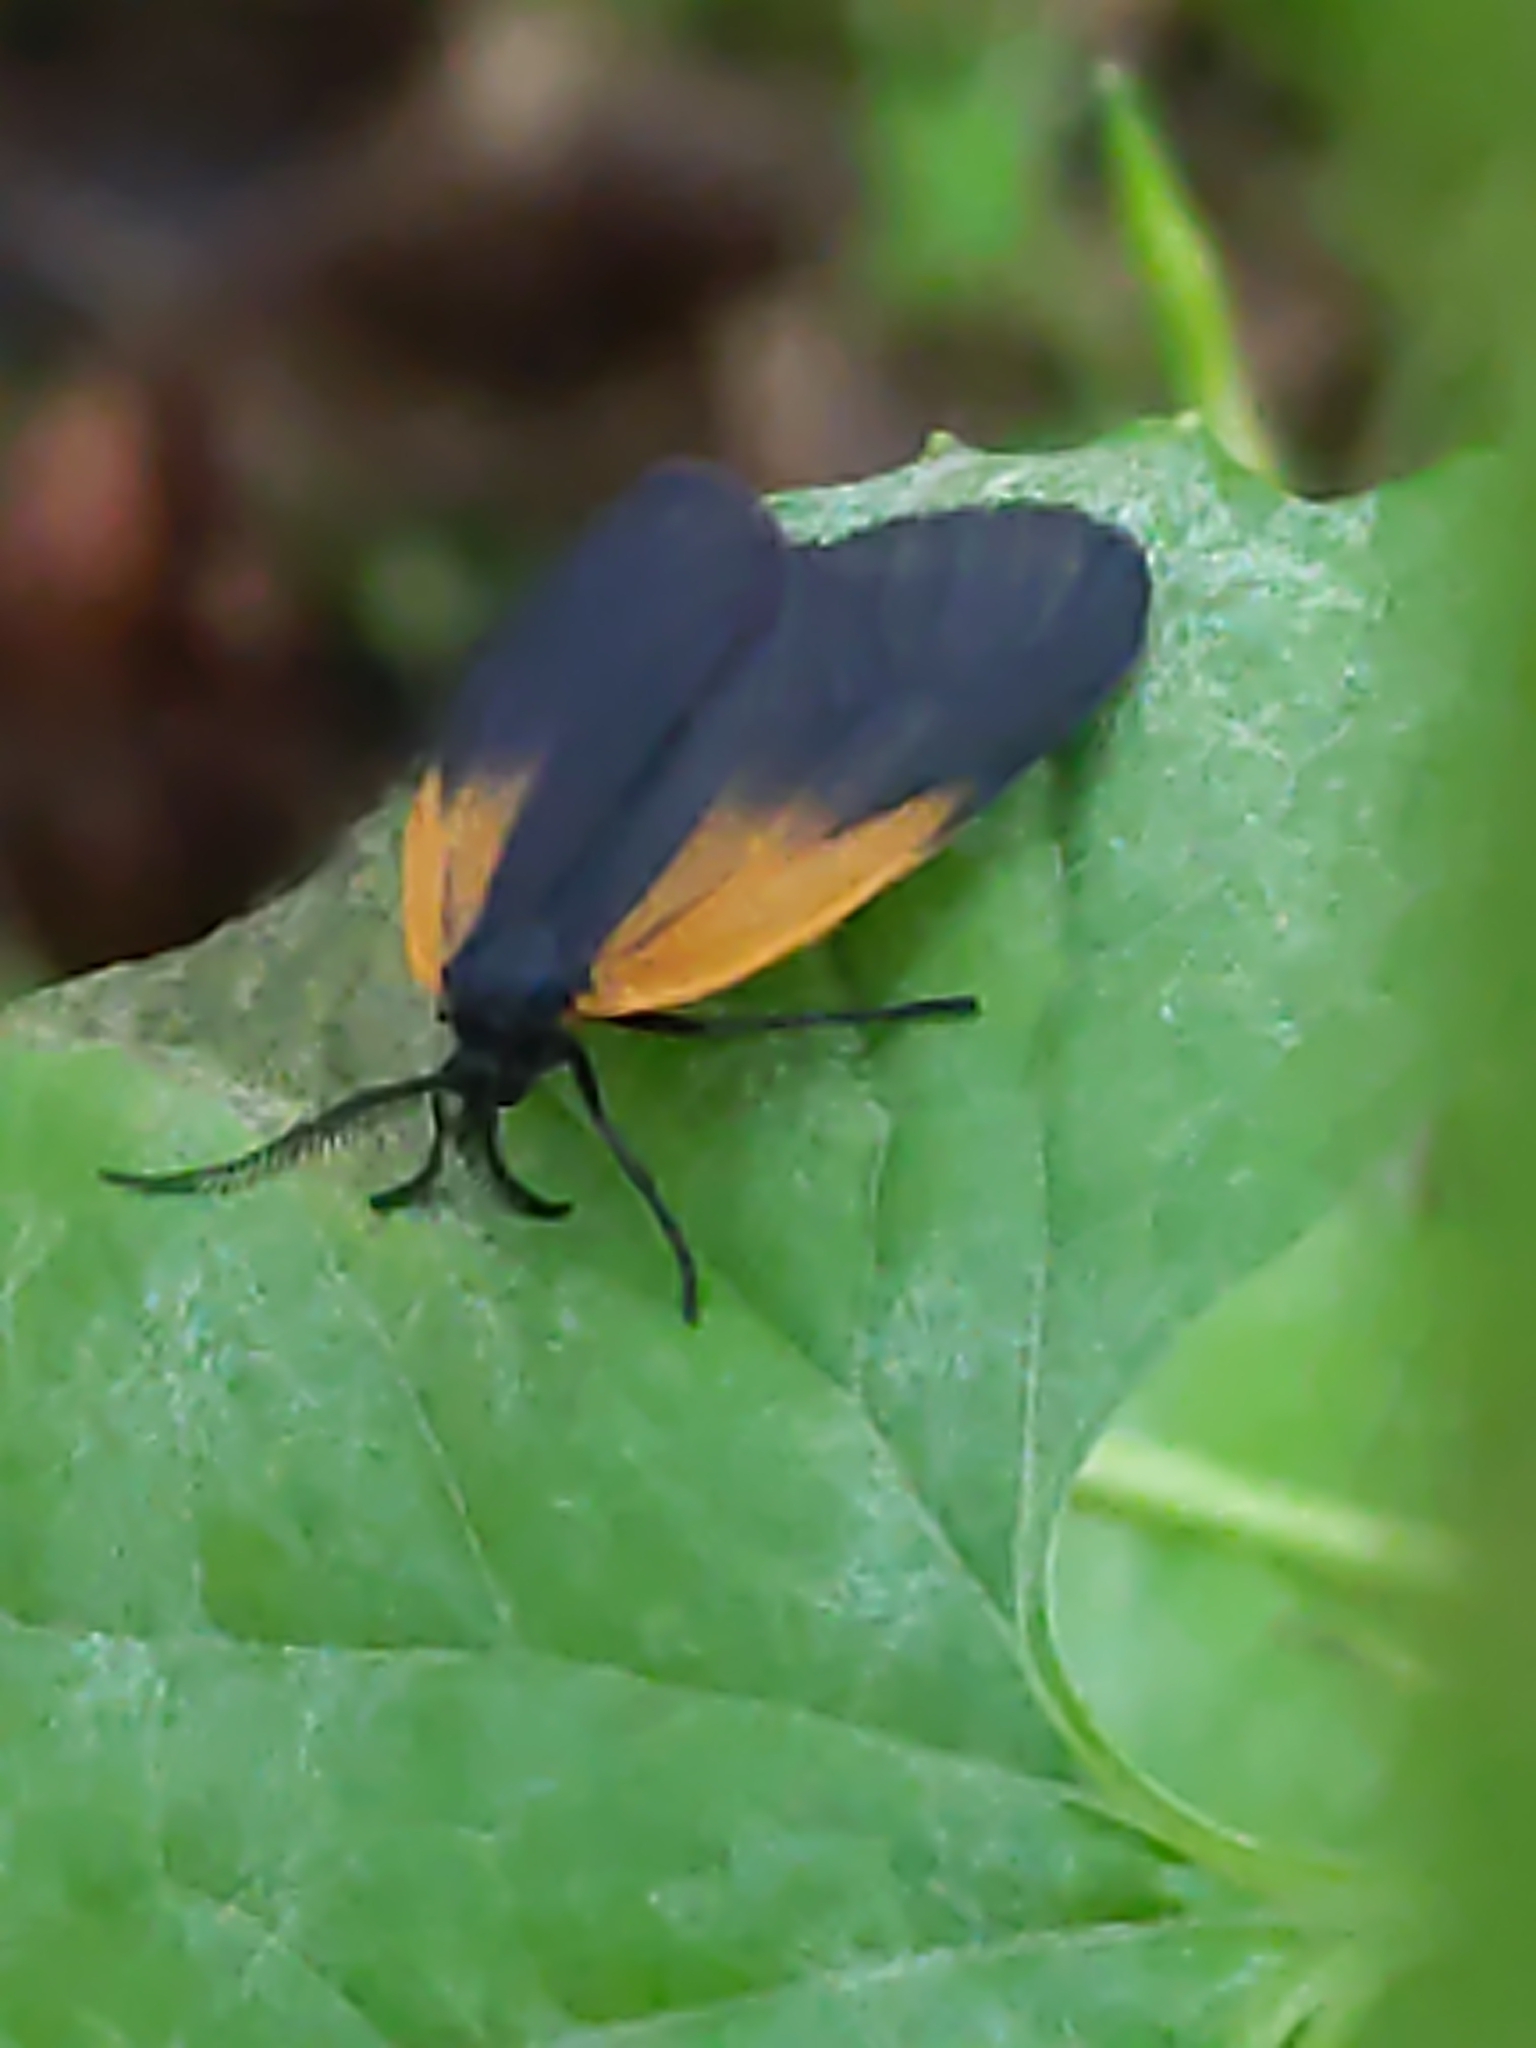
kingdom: Animalia
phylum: Arthropoda
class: Insecta
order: Lepidoptera
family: Zygaenidae
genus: Malthaca
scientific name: Malthaca dimidiata
